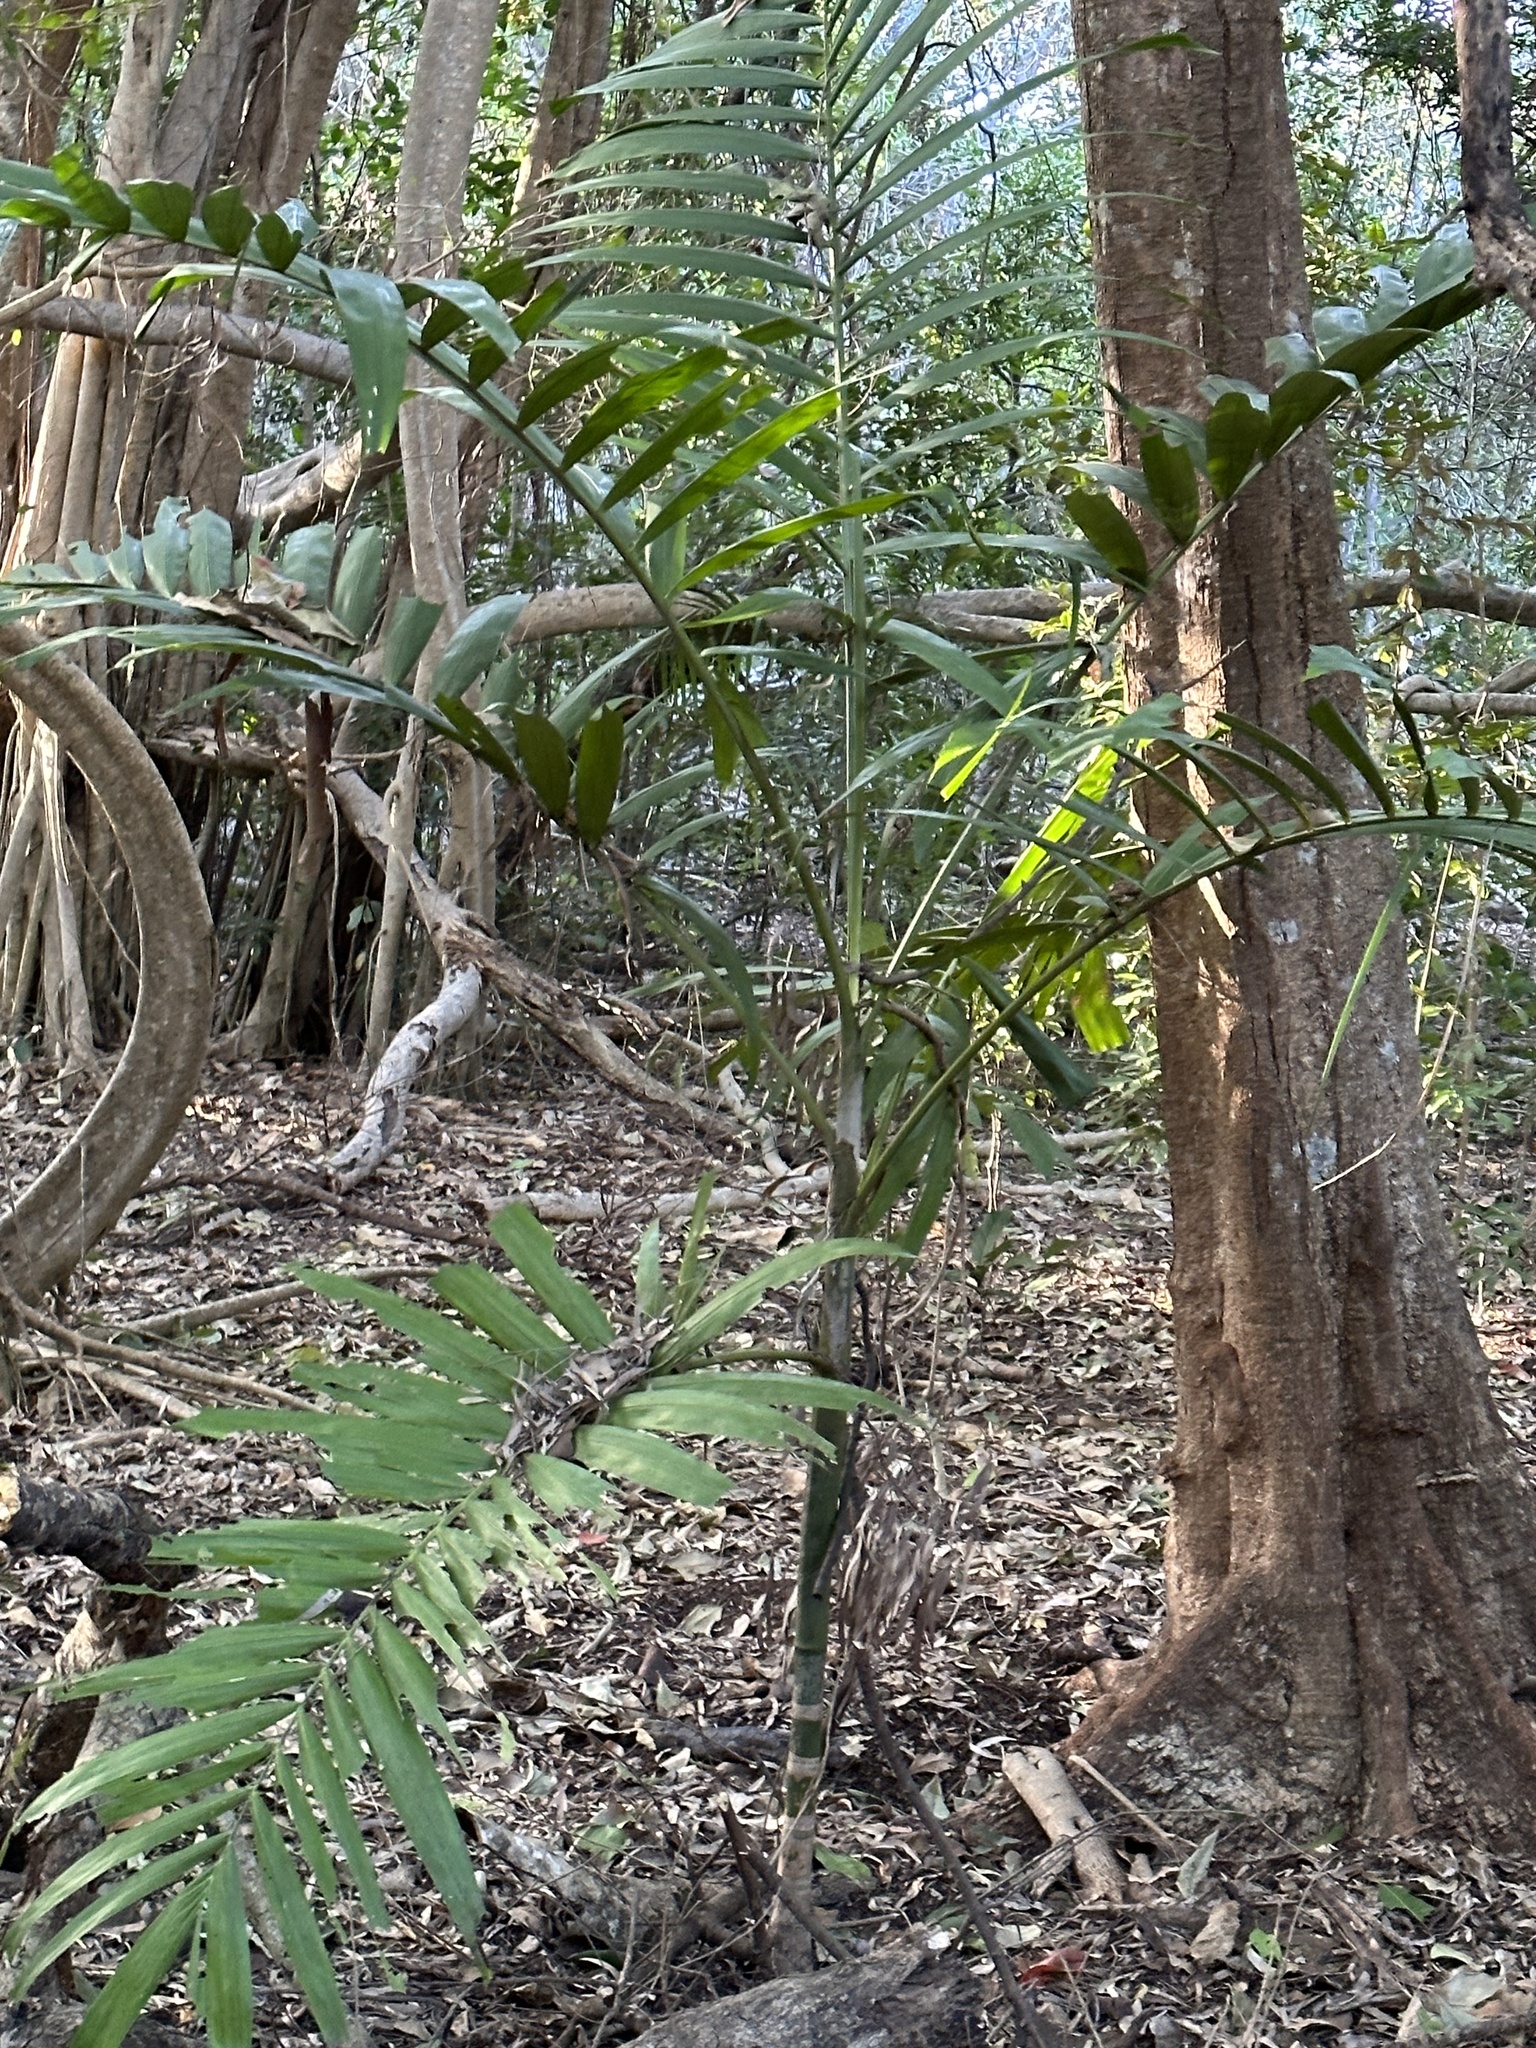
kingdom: Plantae
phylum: Tracheophyta
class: Liliopsida
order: Arecales
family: Arecaceae
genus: Ptychosperma
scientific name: Ptychosperma elegans
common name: Alexander palm
